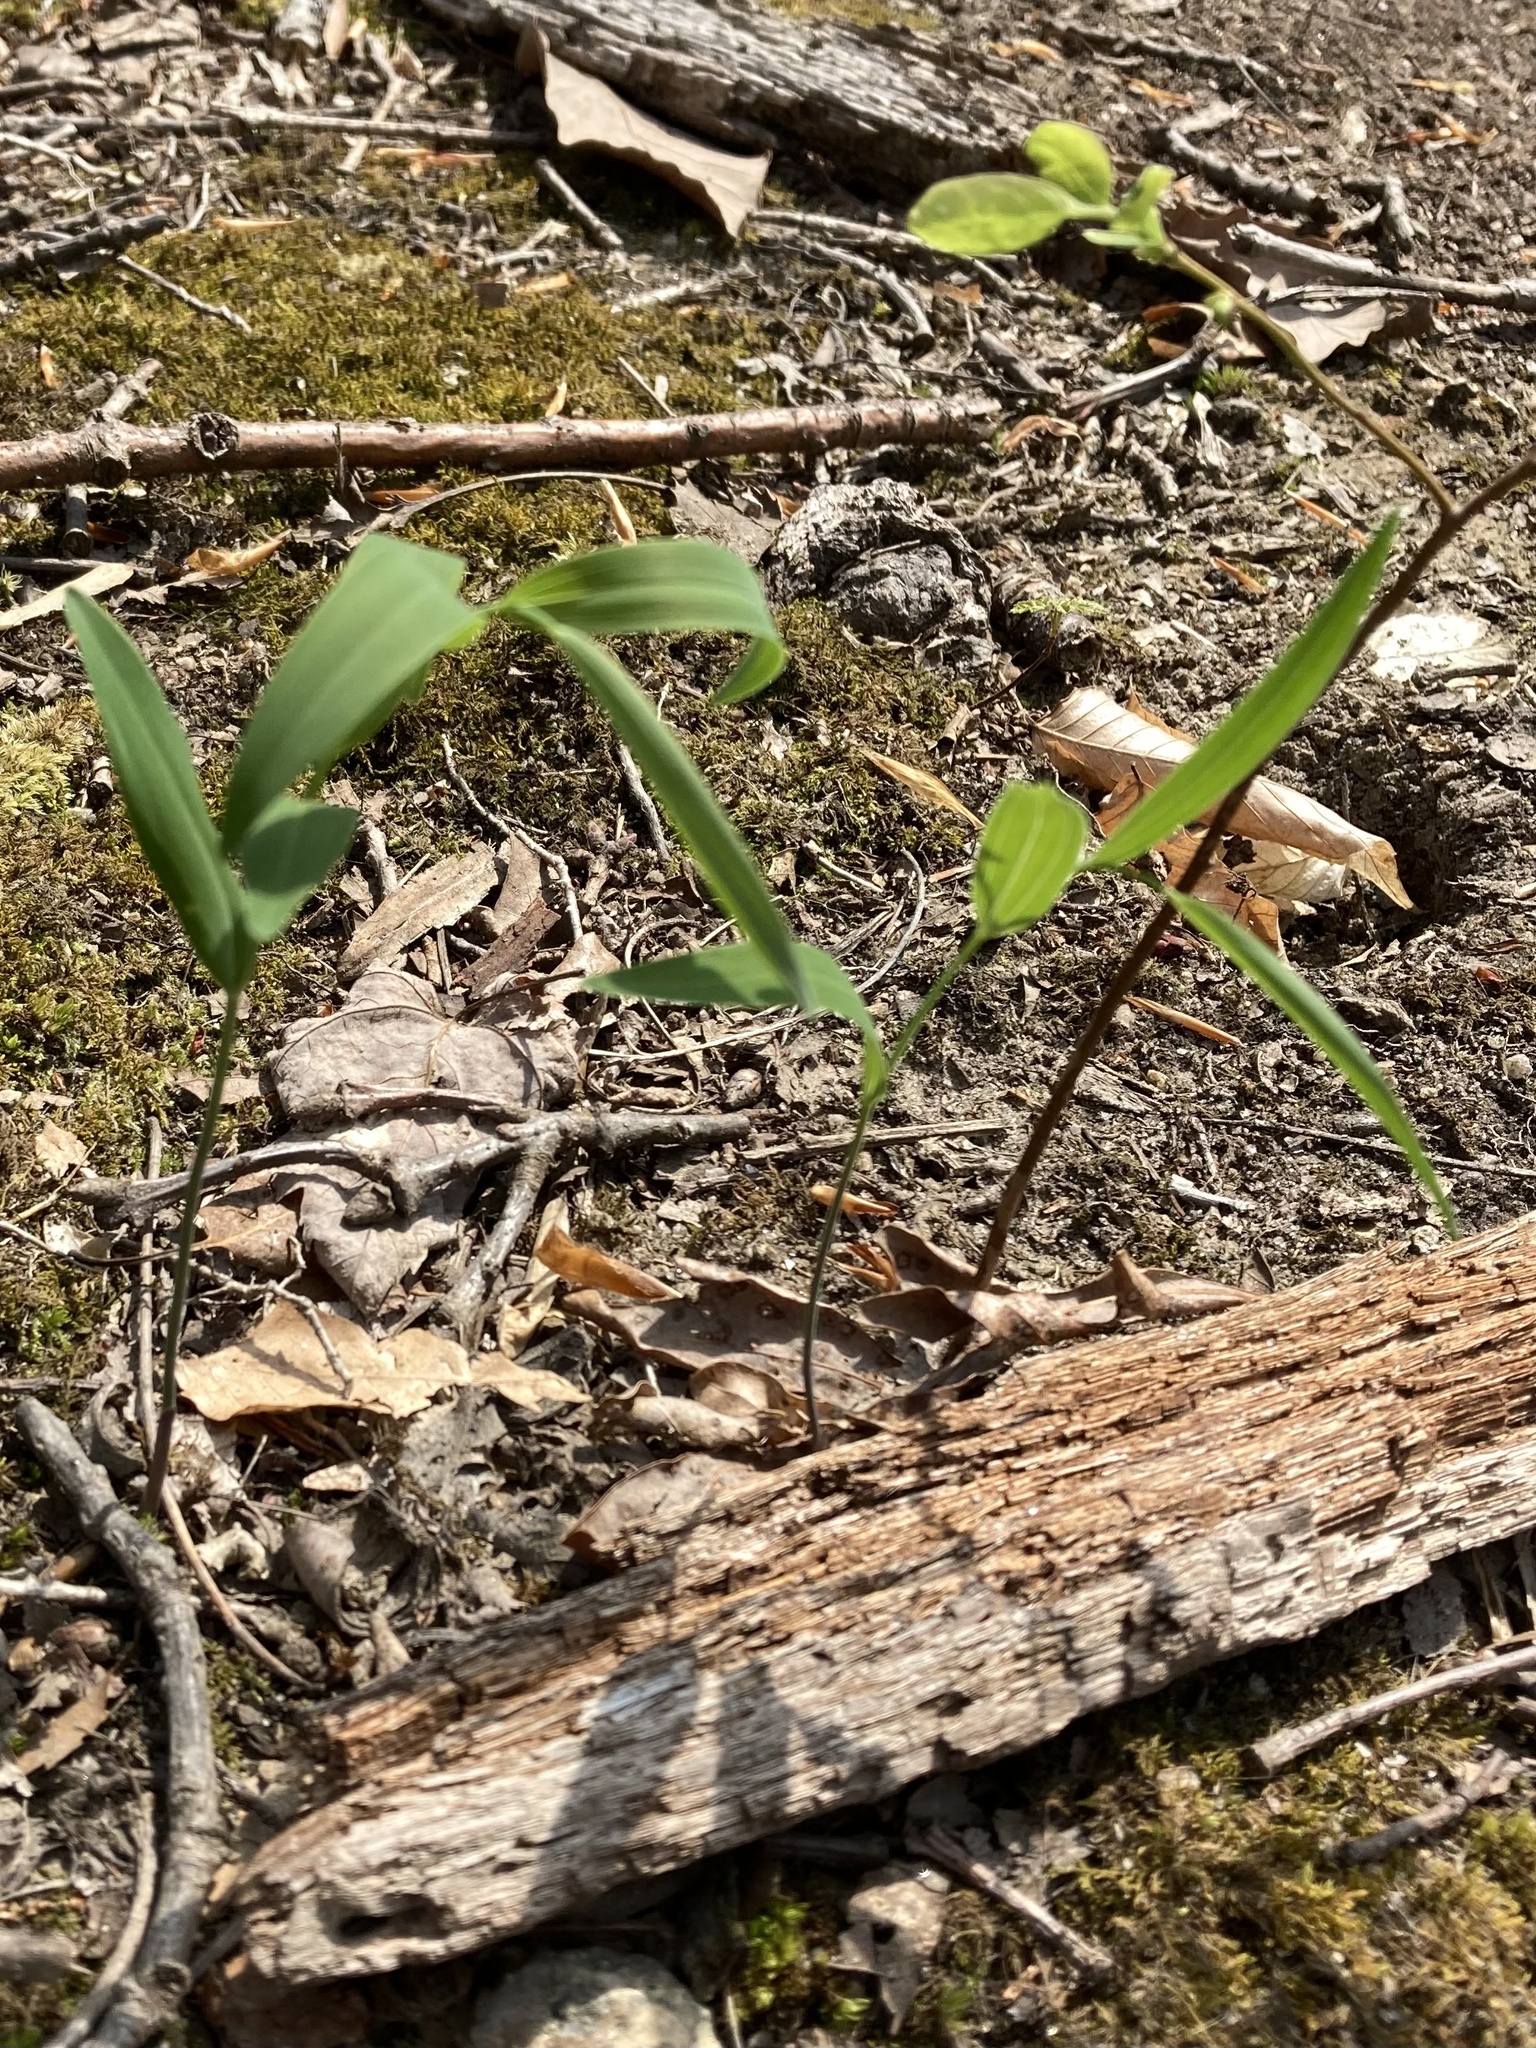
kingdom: Plantae
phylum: Tracheophyta
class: Liliopsida
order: Asparagales
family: Asparagaceae
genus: Polygonatum
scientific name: Polygonatum biflorum
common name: American solomon's-seal
